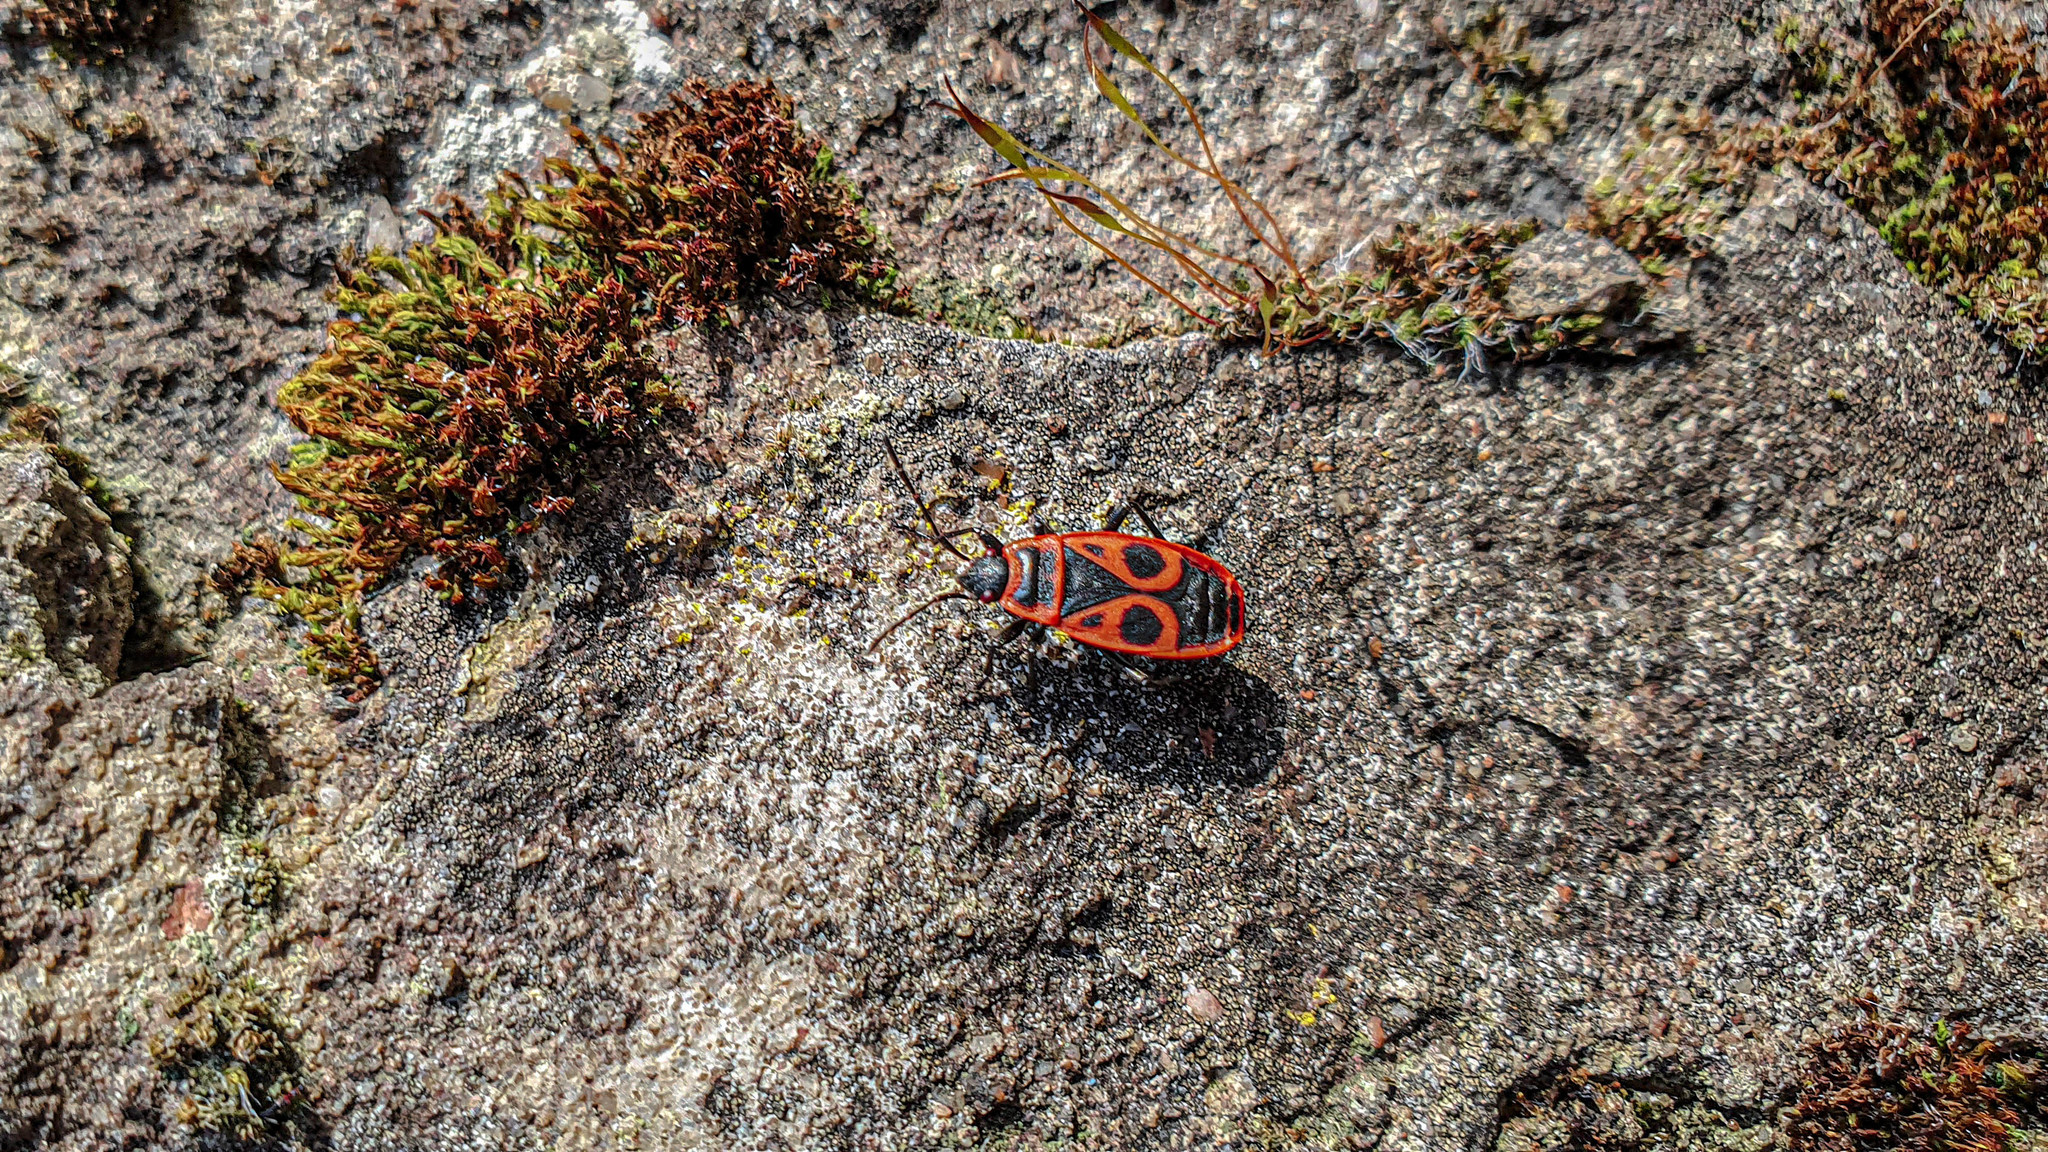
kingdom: Animalia
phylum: Arthropoda
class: Insecta
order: Hemiptera
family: Pyrrhocoridae
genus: Pyrrhocoris
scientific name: Pyrrhocoris apterus
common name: Firebug
